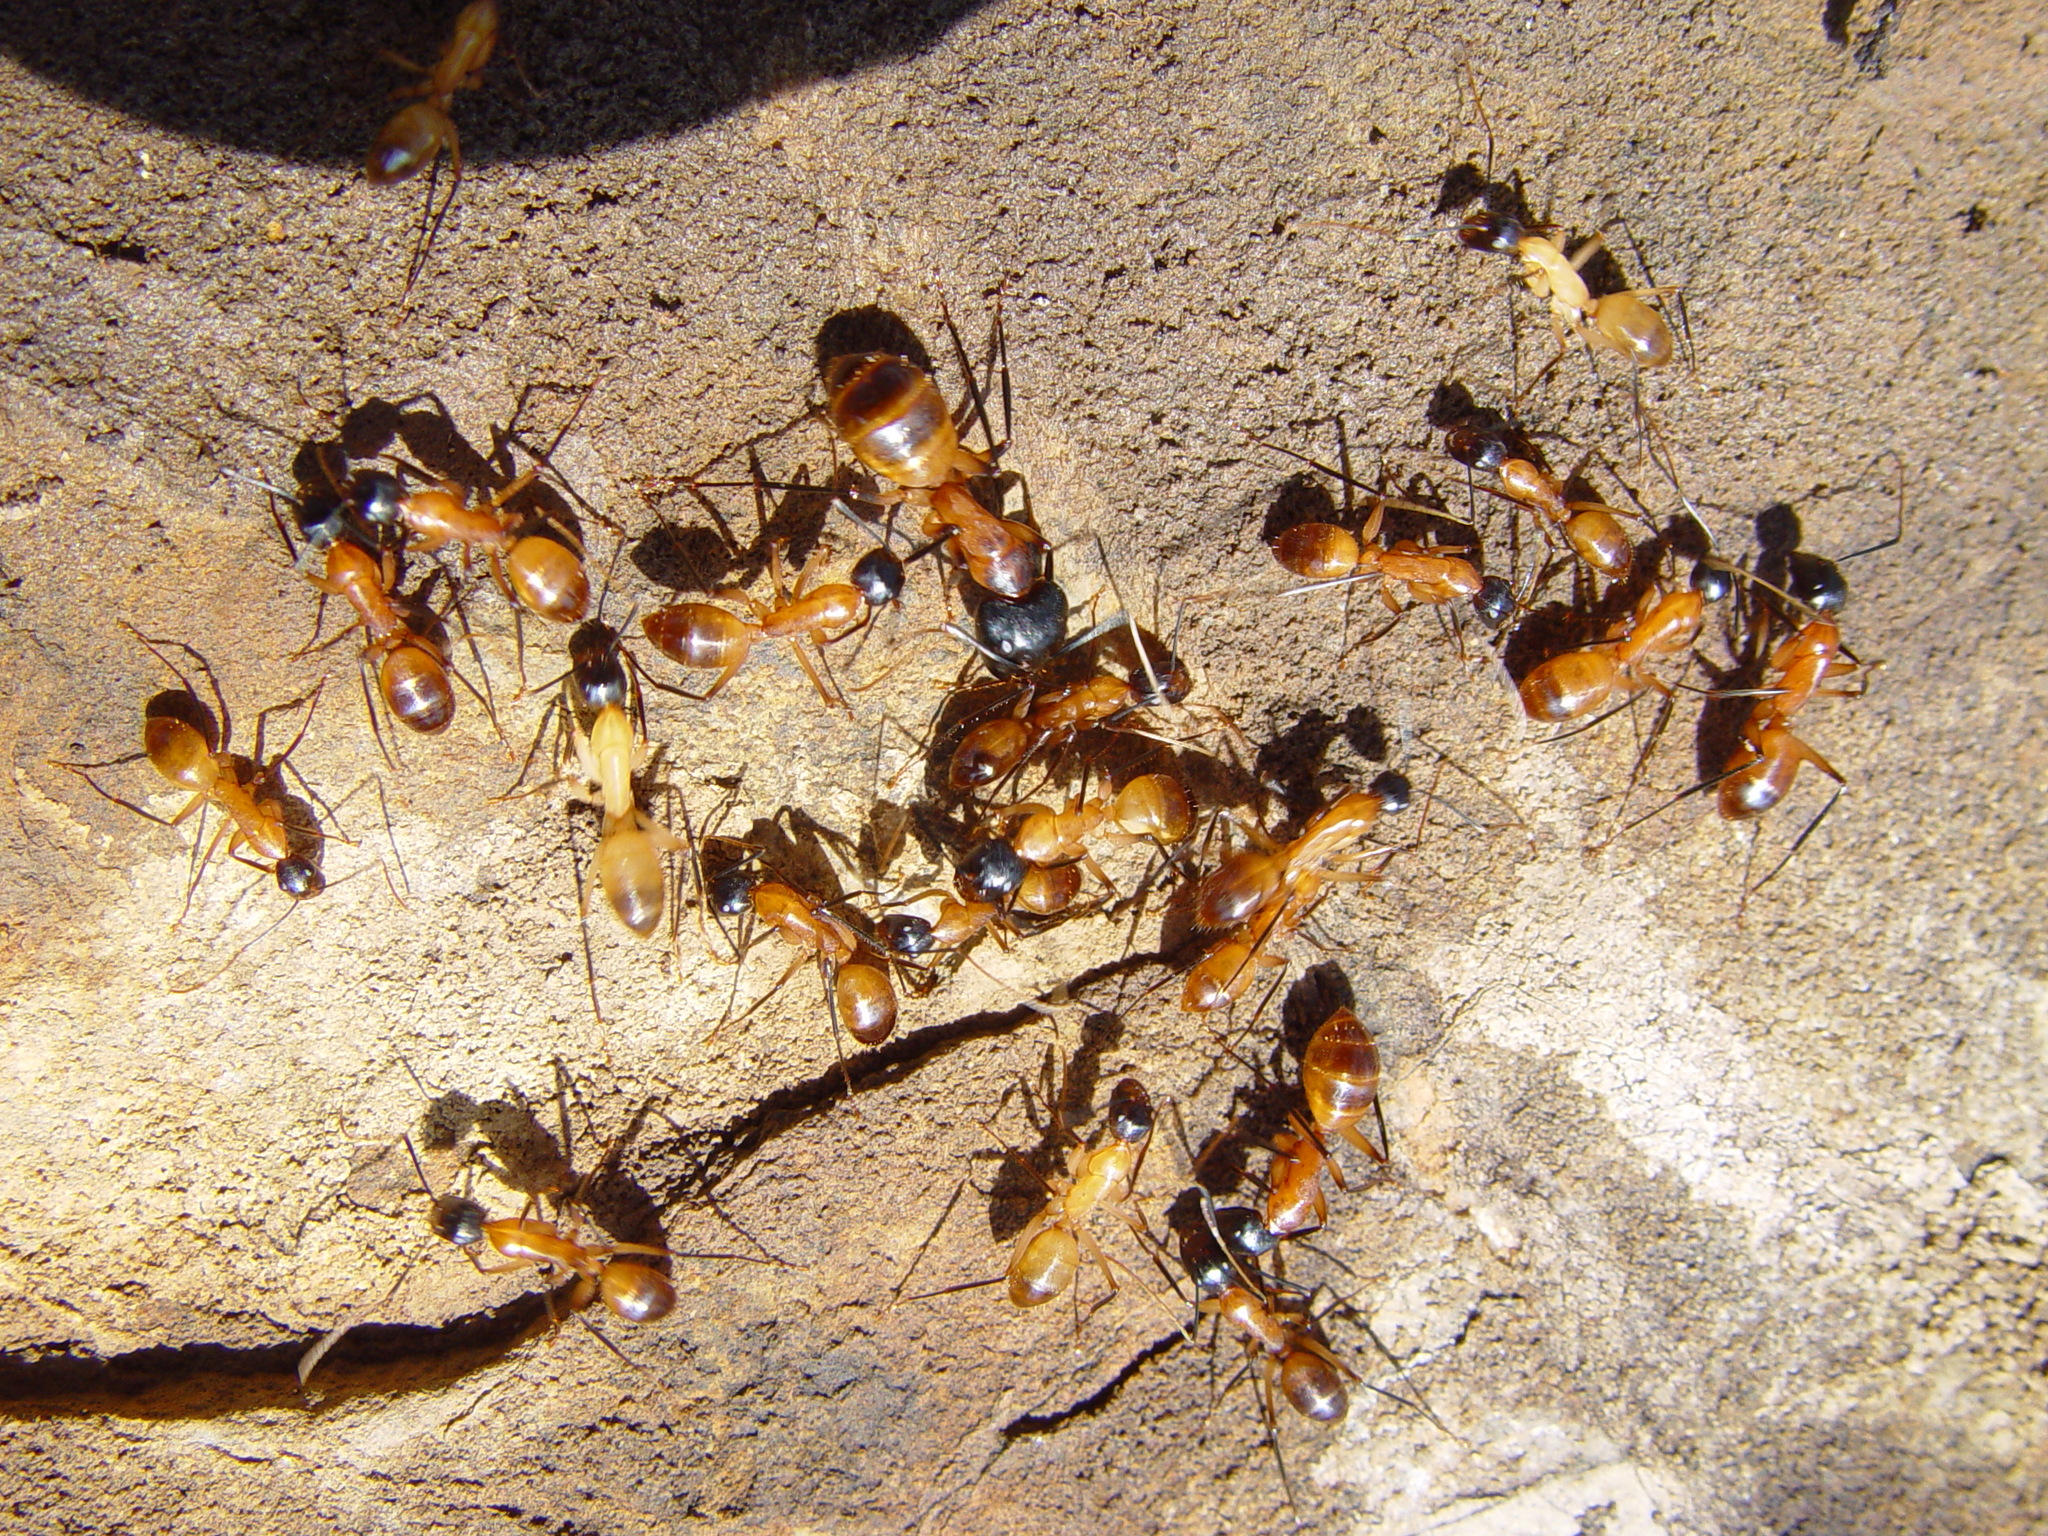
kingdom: Animalia
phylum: Arthropoda
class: Insecta
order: Hymenoptera
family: Formicidae
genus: Camponotus
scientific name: Camponotus ocreatus
